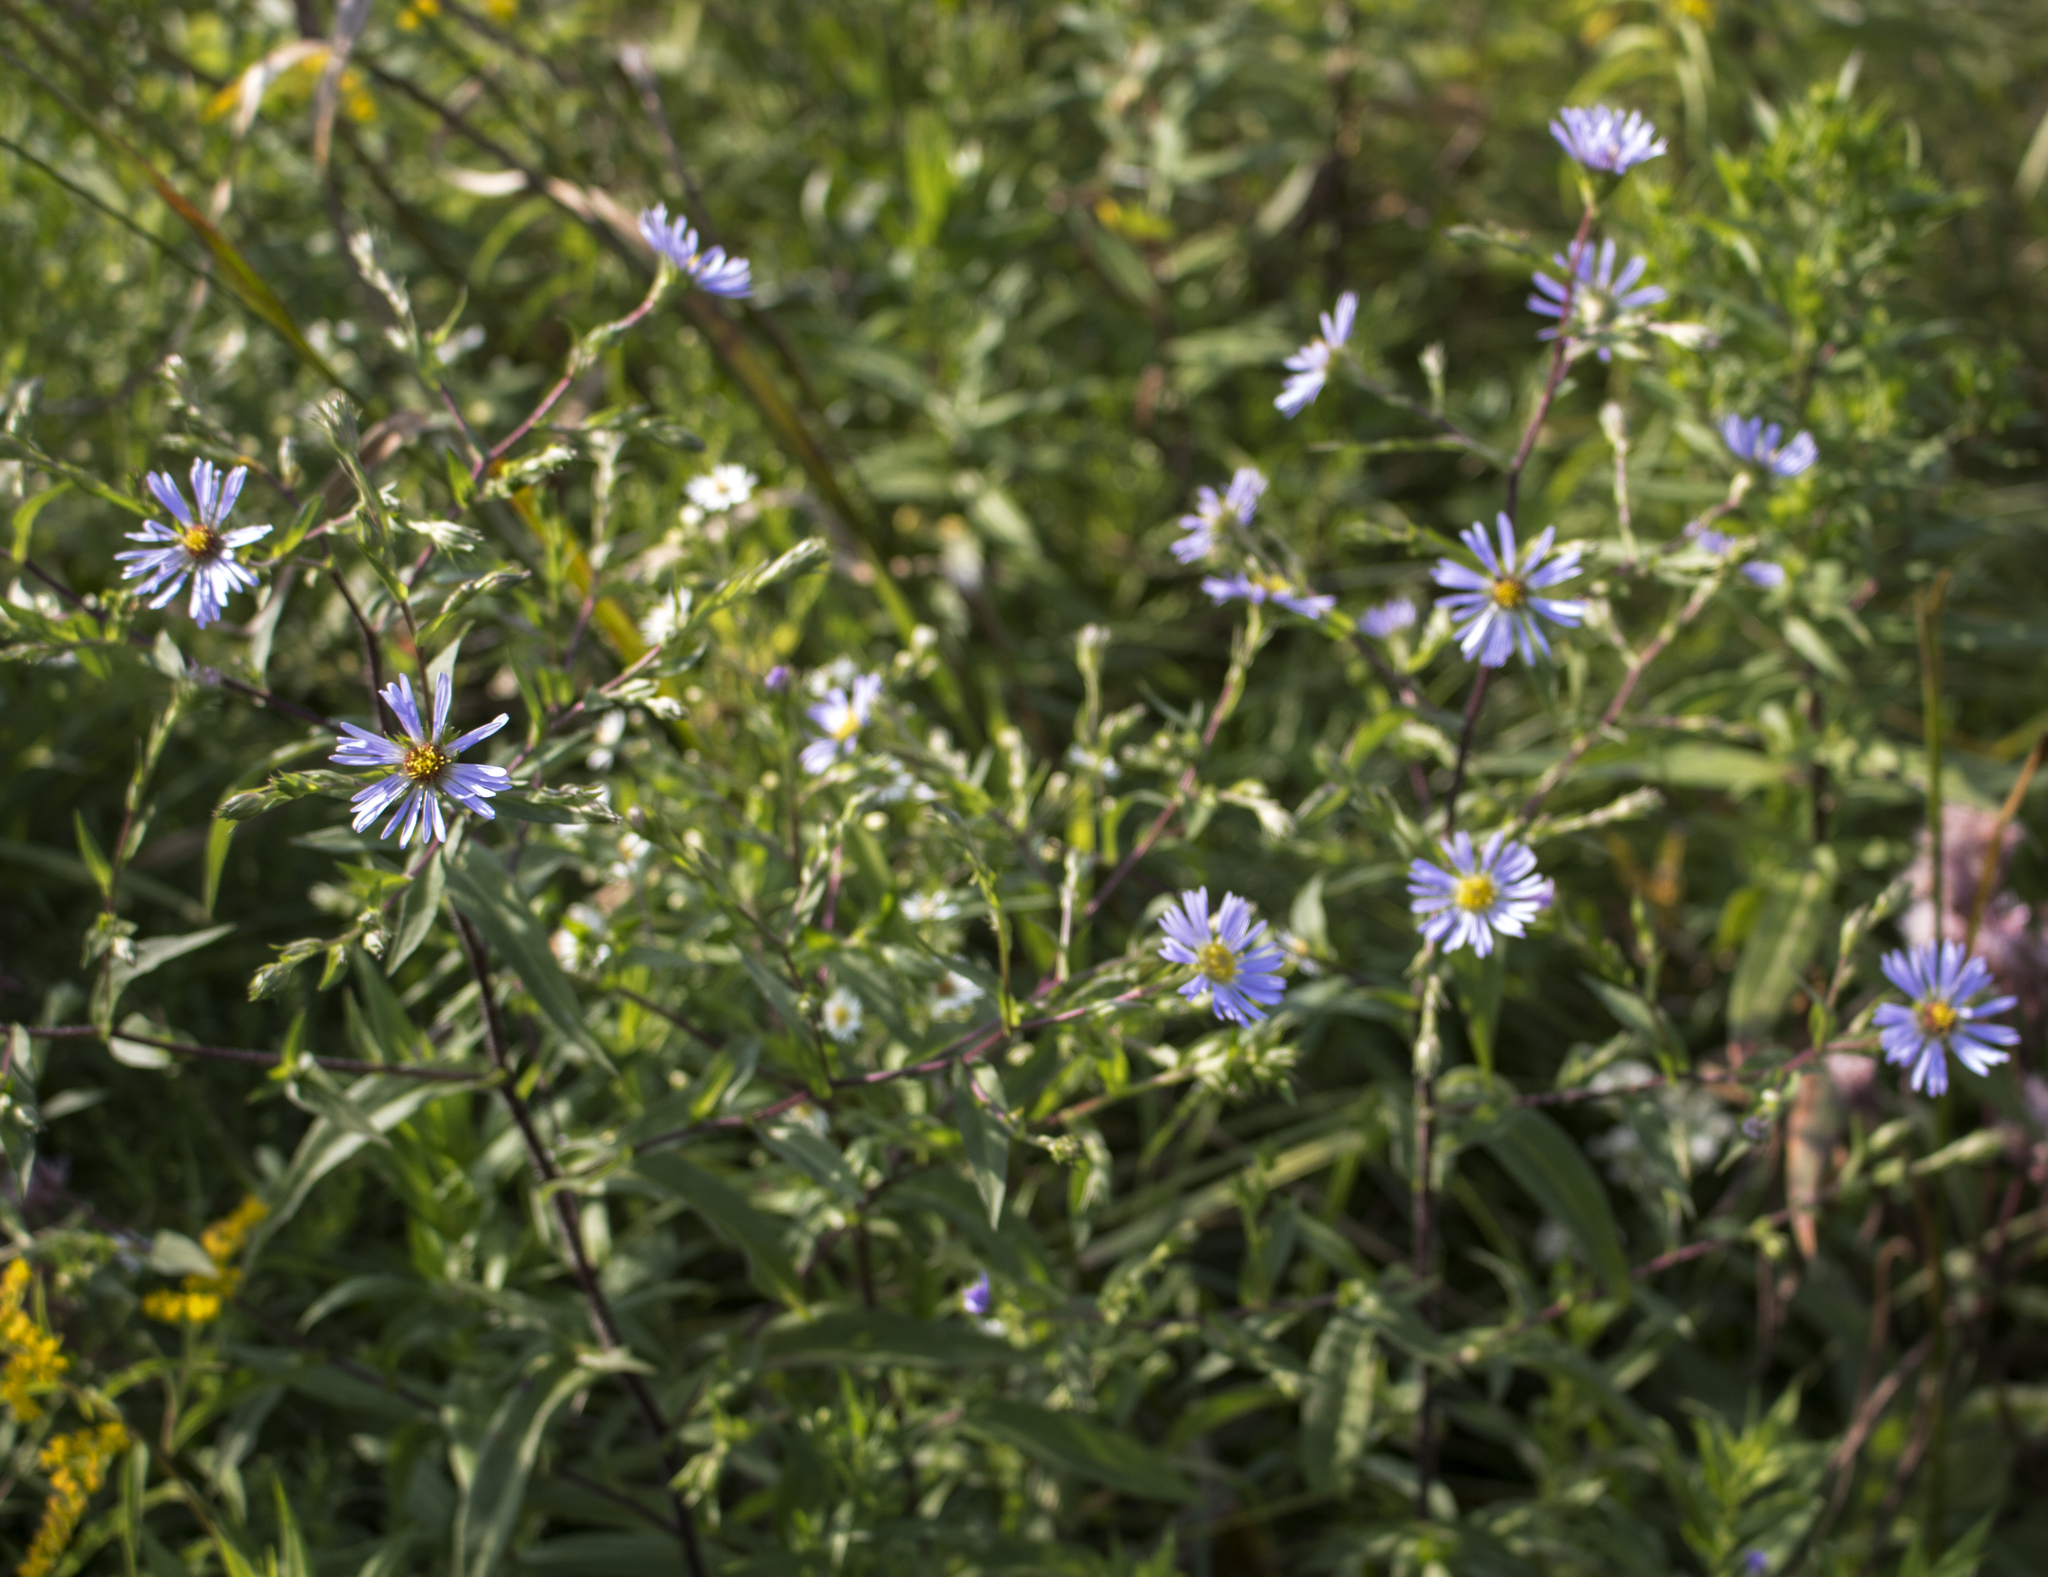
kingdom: Plantae
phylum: Tracheophyta
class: Magnoliopsida
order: Asterales
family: Asteraceae
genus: Symphyotrichum
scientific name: Symphyotrichum puniceum
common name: Bog aster
